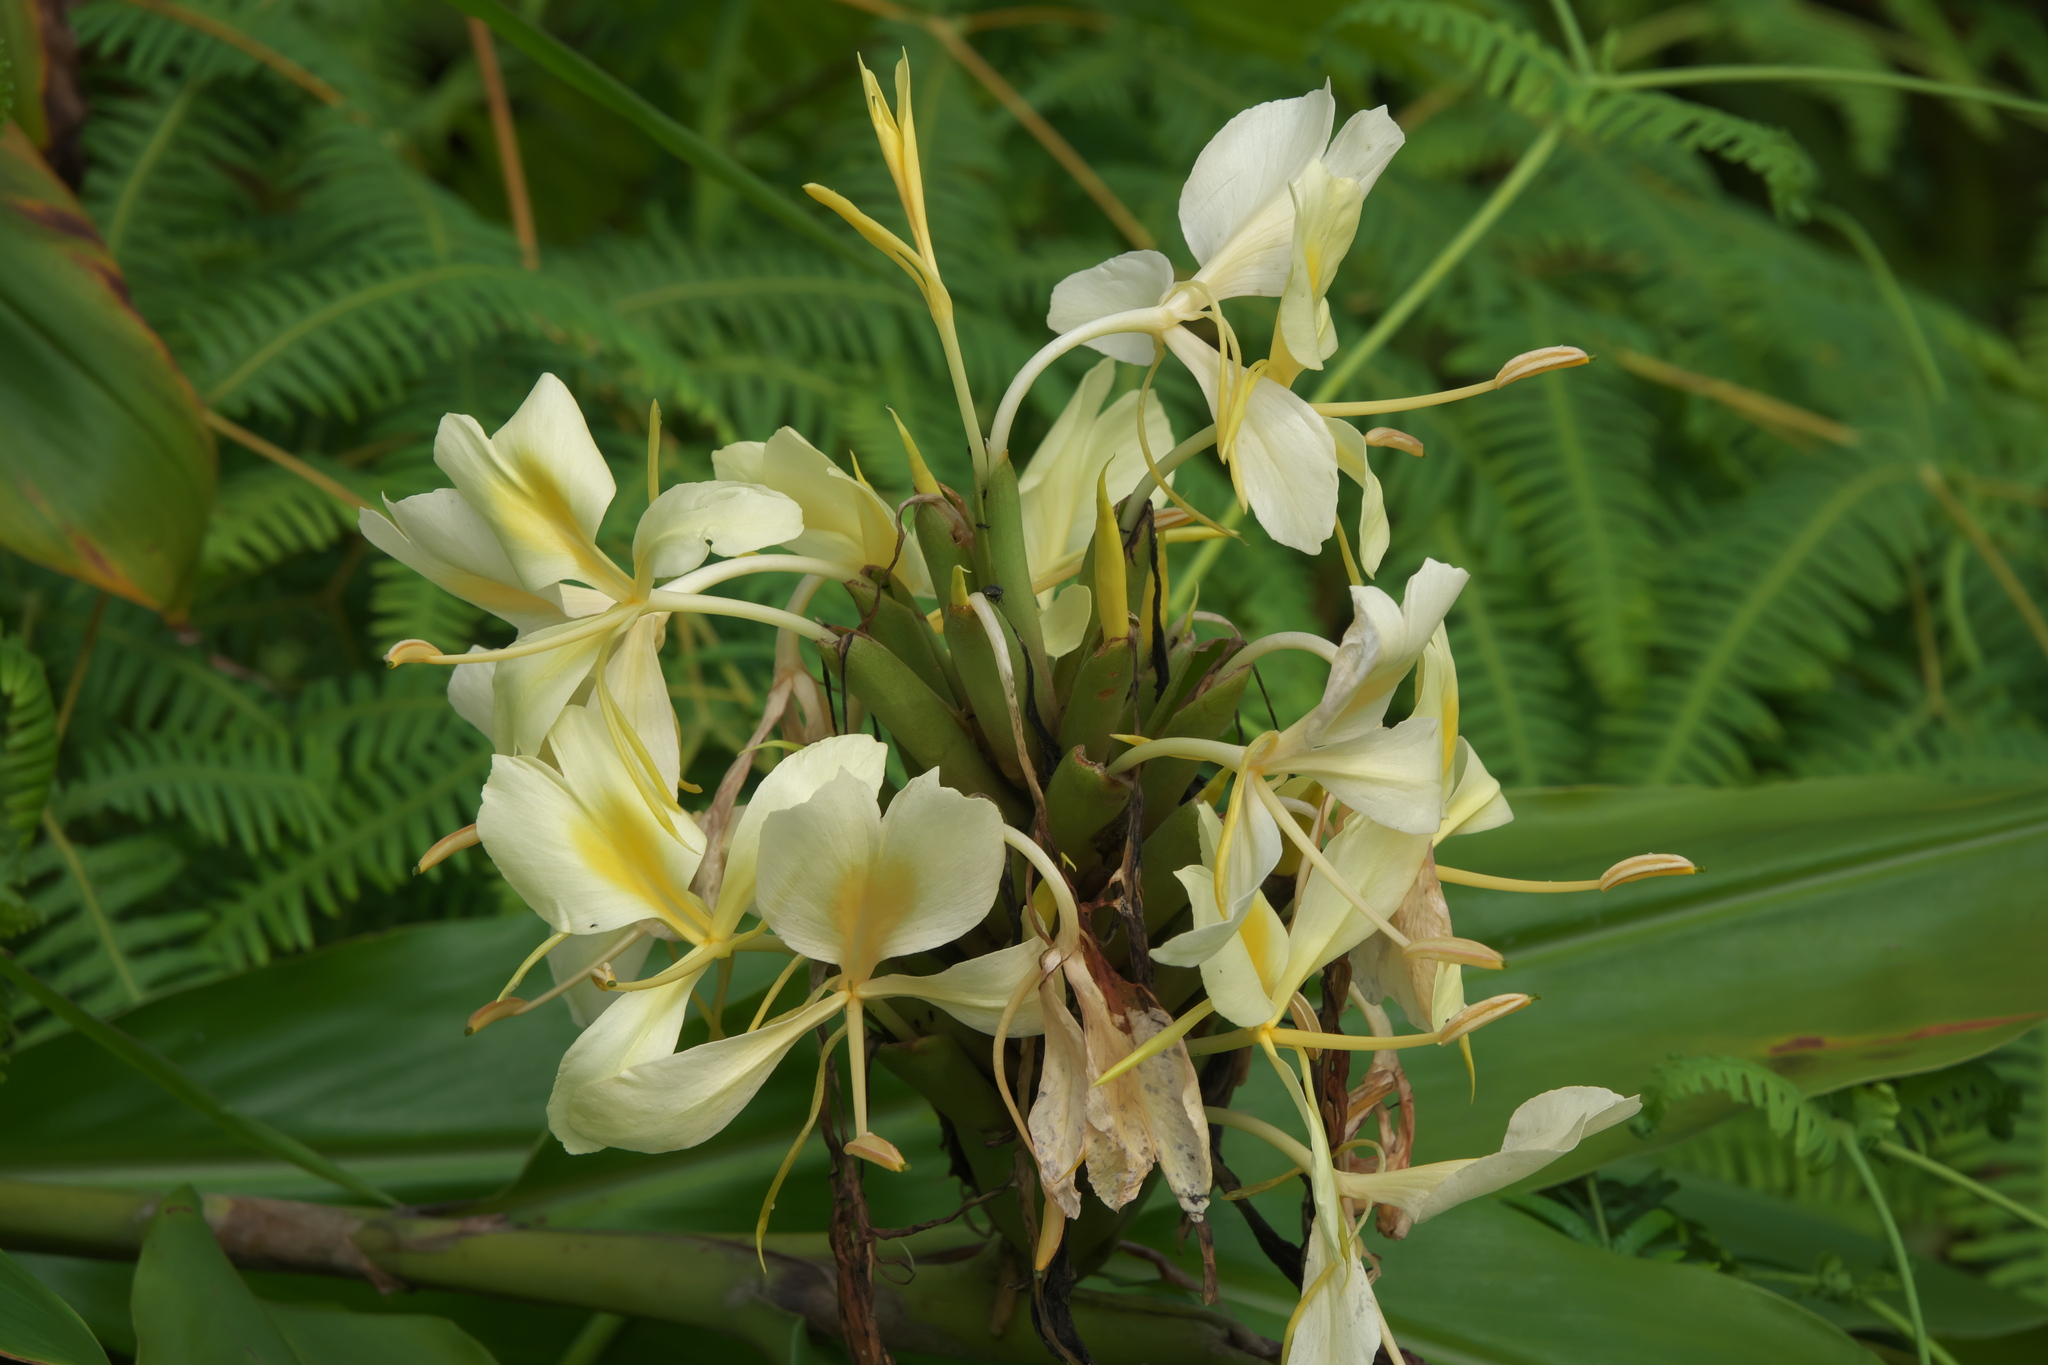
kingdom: Plantae
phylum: Tracheophyta
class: Liliopsida
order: Zingiberales
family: Zingiberaceae
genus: Hedychium
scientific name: Hedychium flavescens
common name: Yellow ginger
